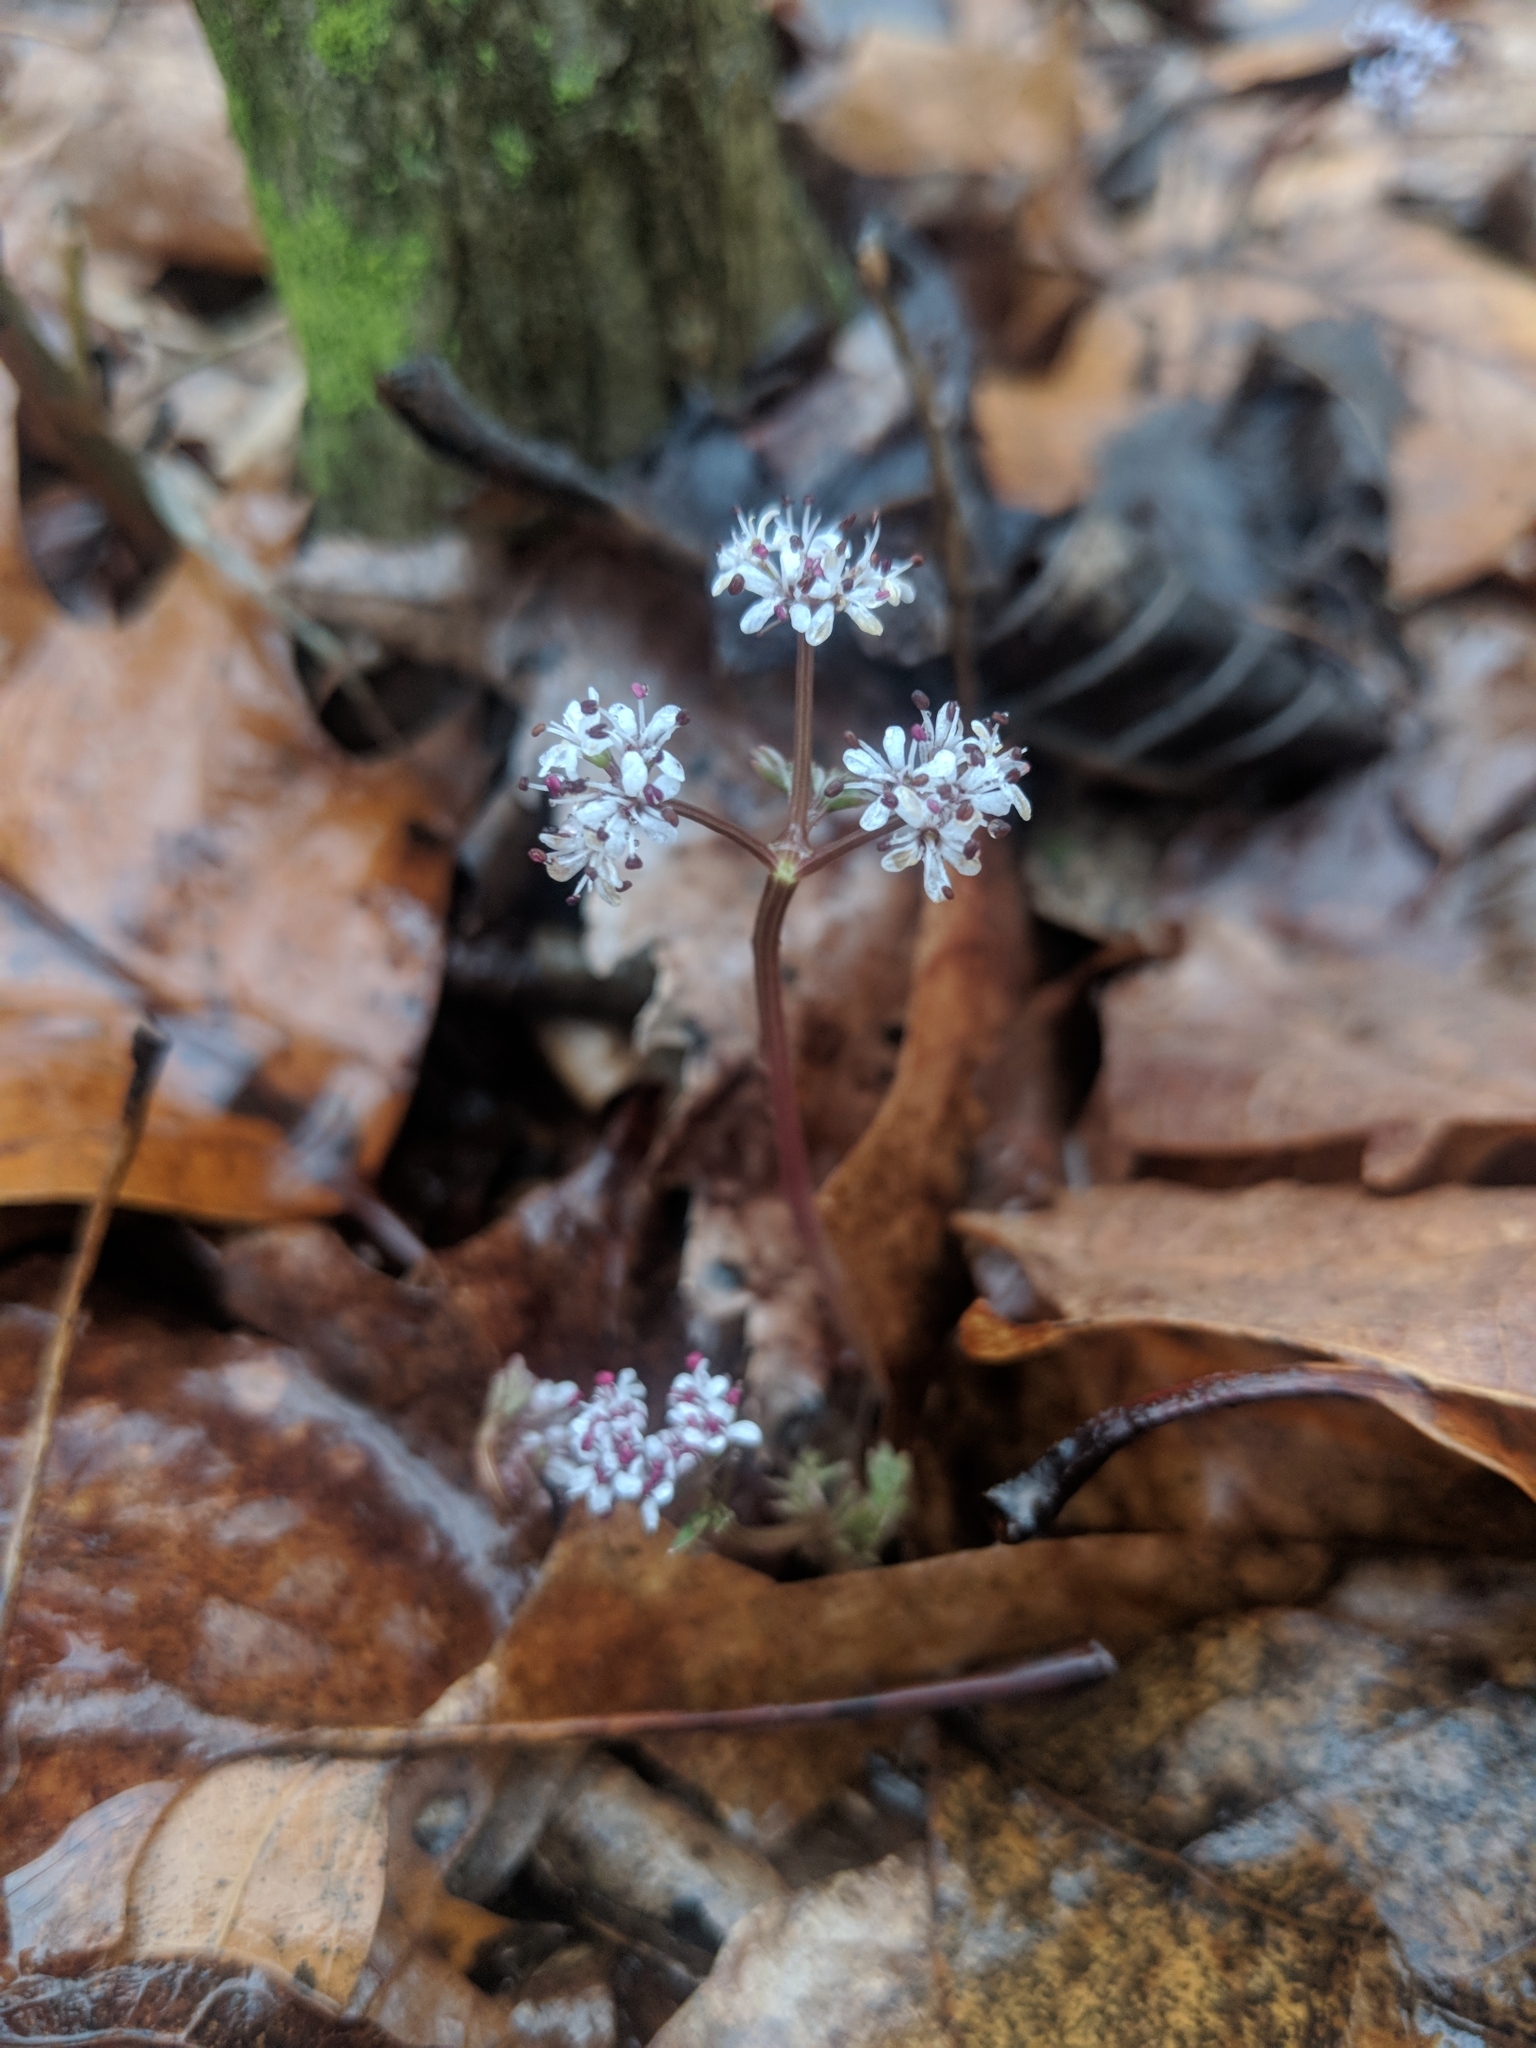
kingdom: Plantae
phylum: Tracheophyta
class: Magnoliopsida
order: Apiales
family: Apiaceae
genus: Erigenia
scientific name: Erigenia bulbosa
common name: Pepper-and-salt
